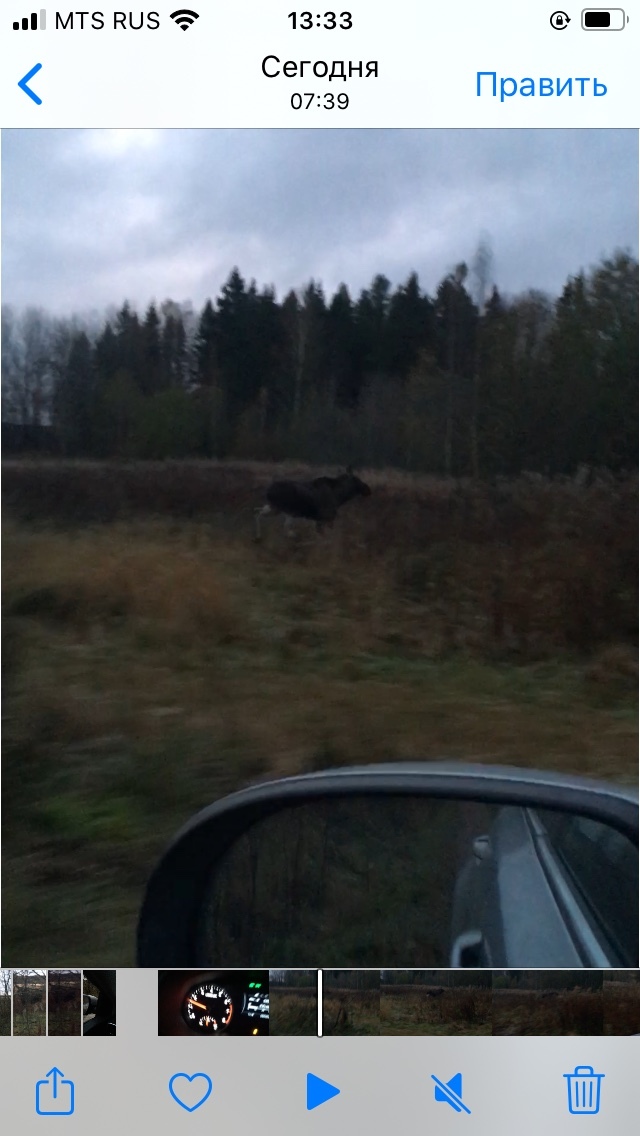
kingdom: Animalia
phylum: Chordata
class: Mammalia
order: Artiodactyla
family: Cervidae
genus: Alces
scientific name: Alces alces
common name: Moose
